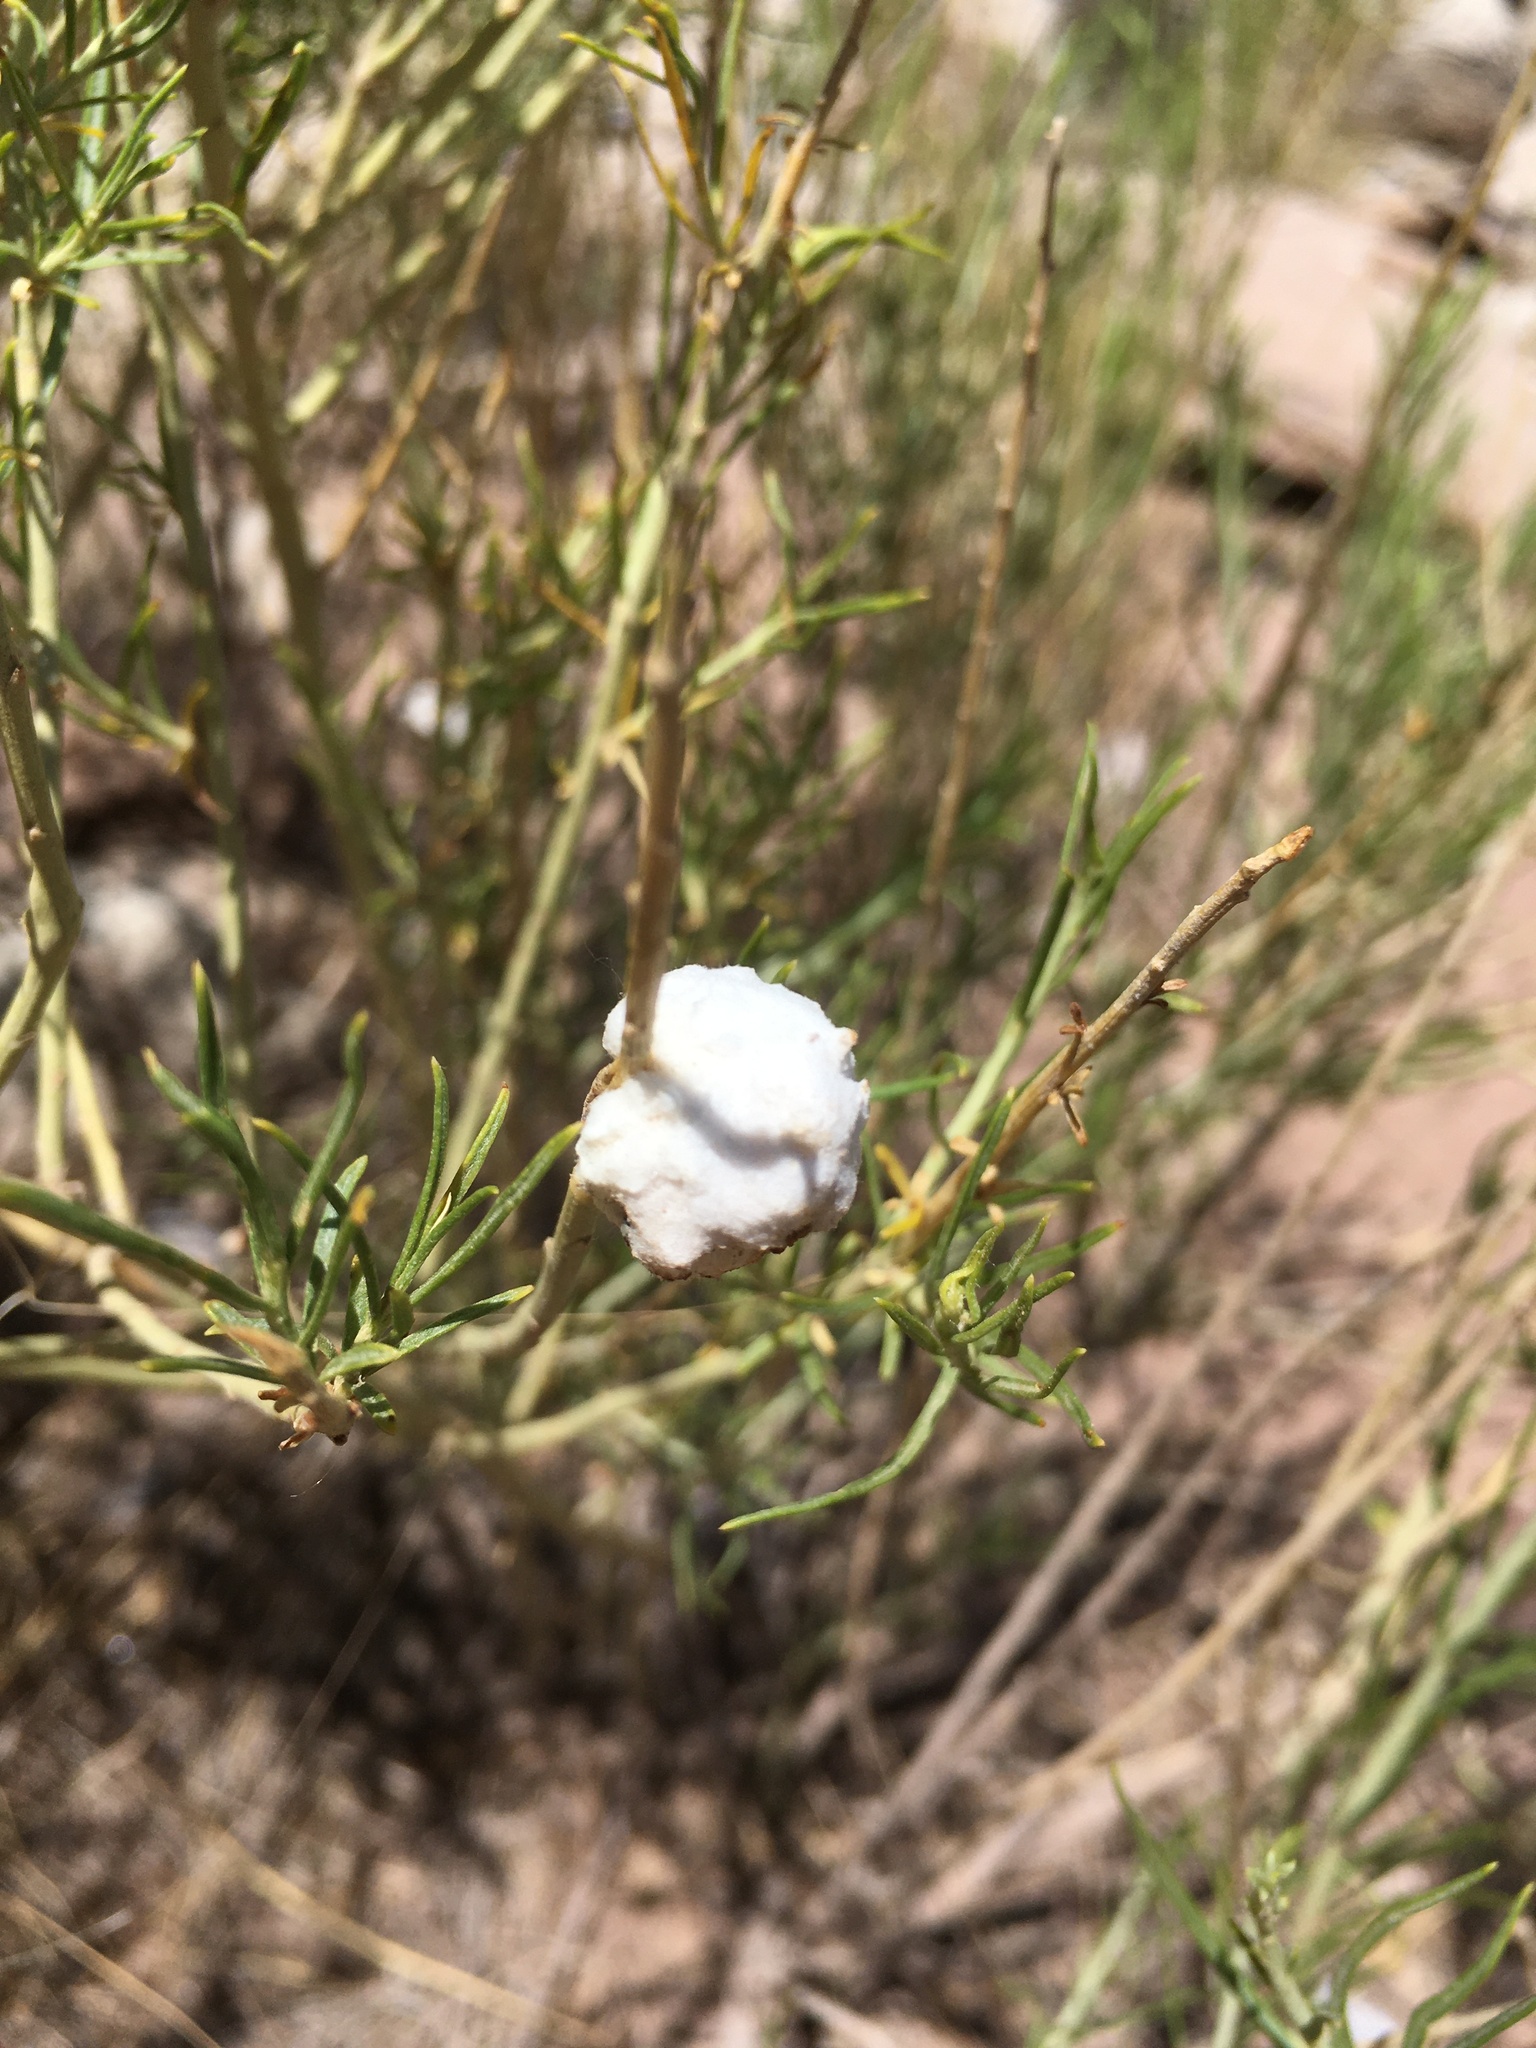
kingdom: Animalia
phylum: Arthropoda
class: Insecta
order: Diptera
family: Tephritidae
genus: Aciurina
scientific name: Aciurina bigeloviae
